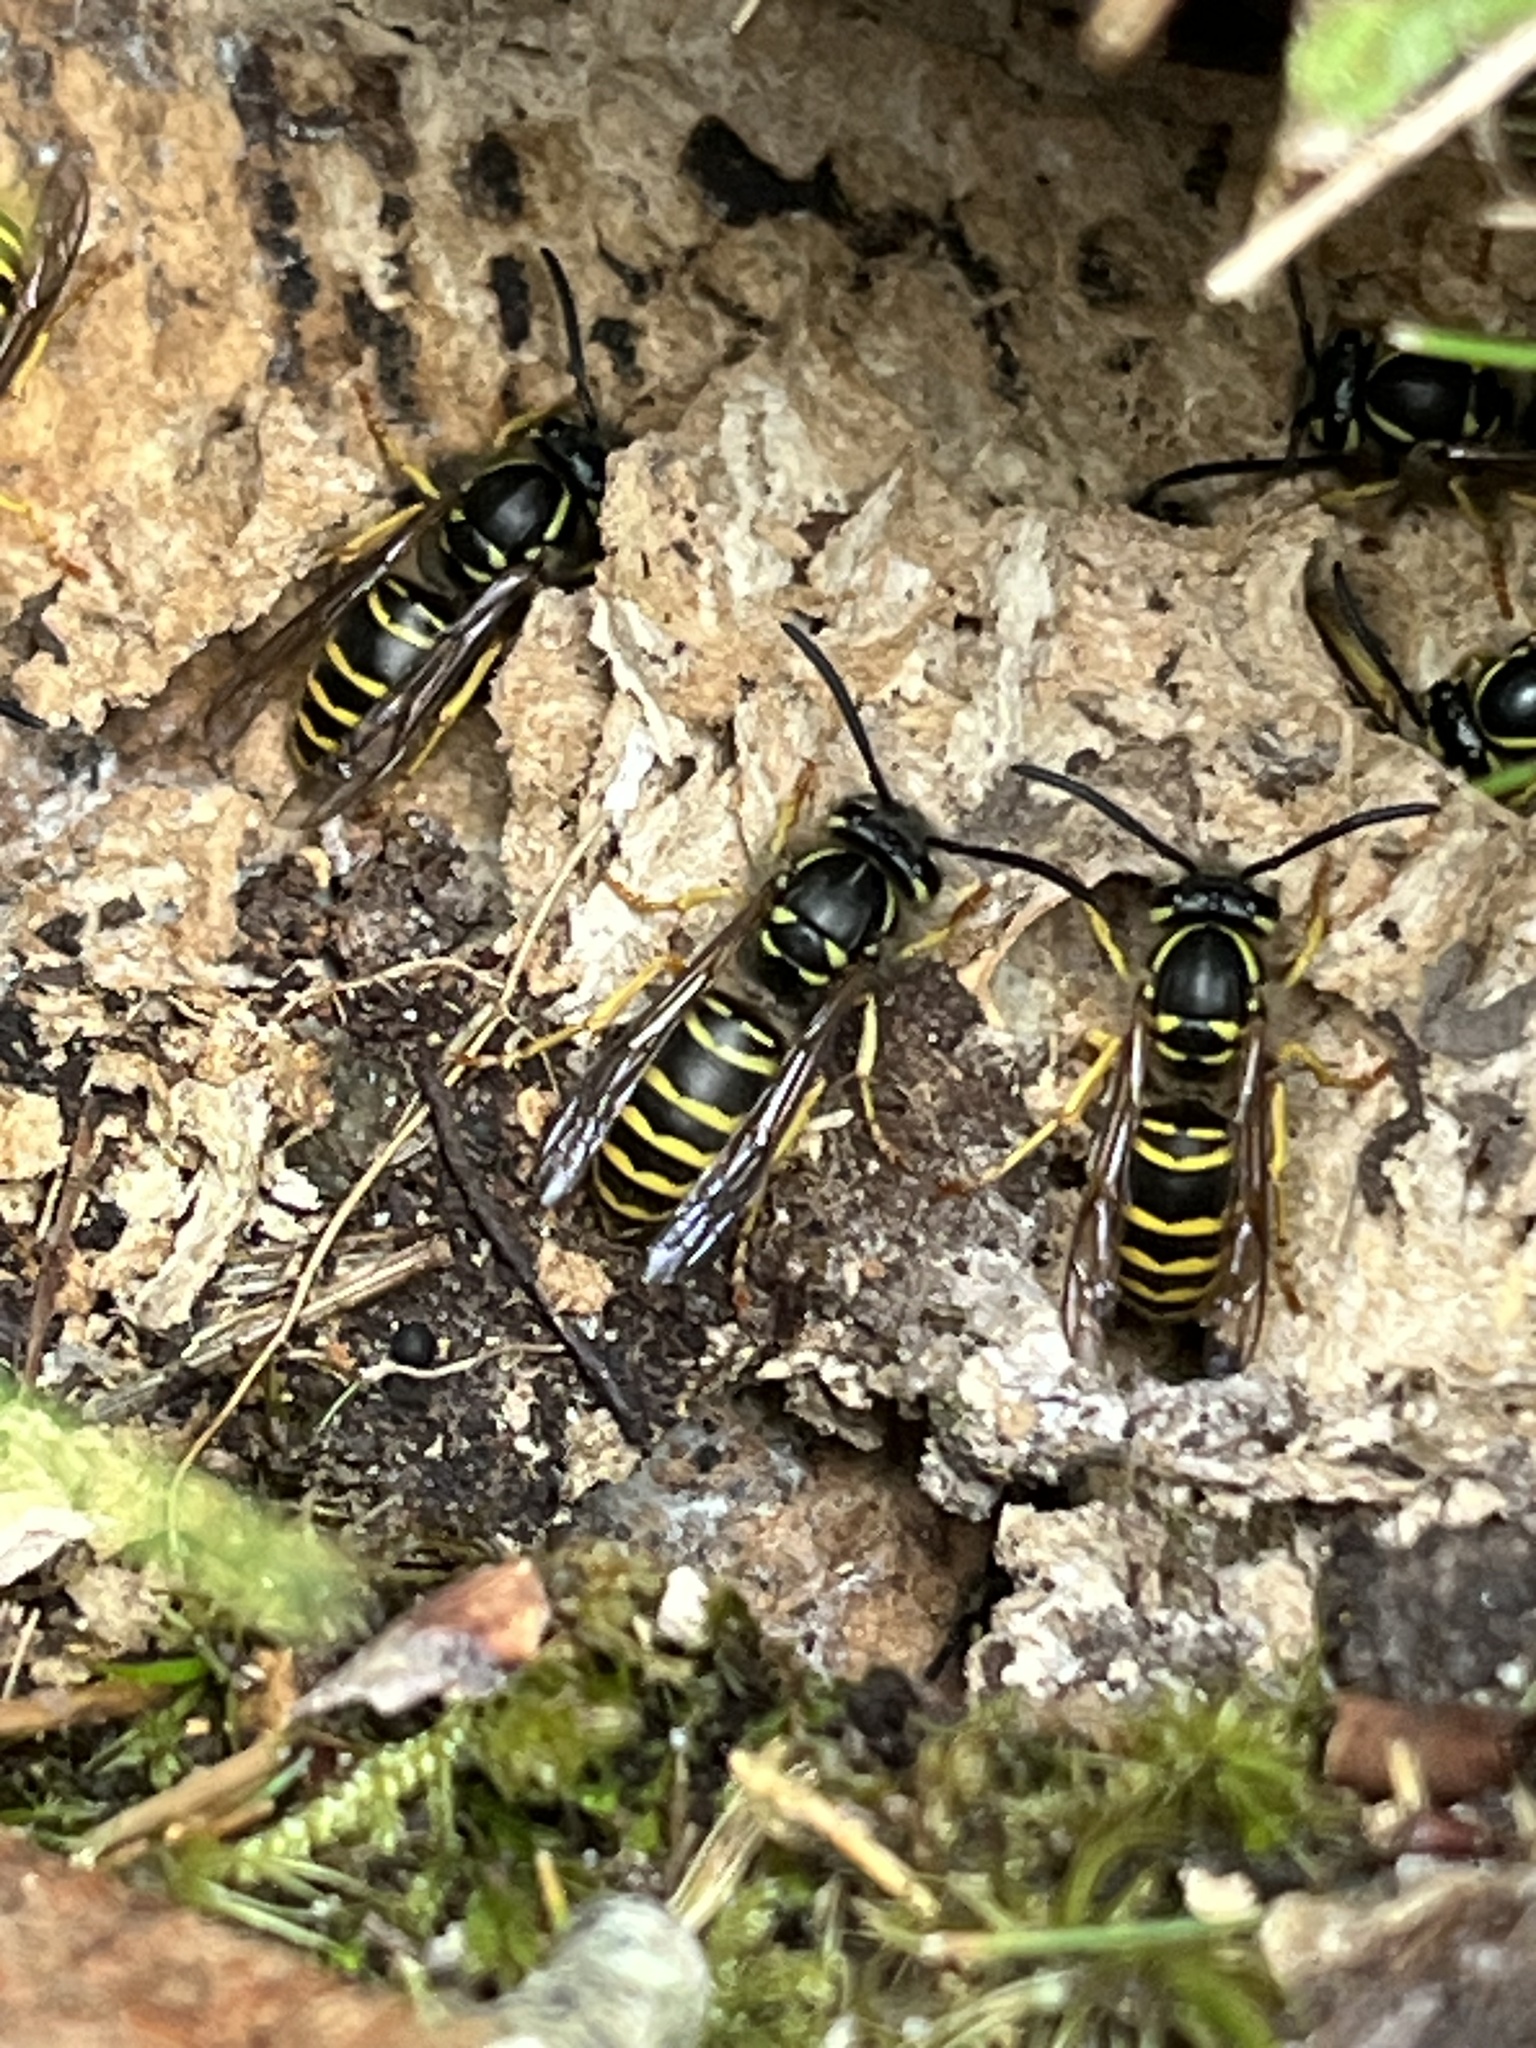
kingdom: Animalia
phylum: Arthropoda
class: Insecta
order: Hymenoptera
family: Vespidae
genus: Vespula
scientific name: Vespula maculifrons
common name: Eastern yellowjacket
